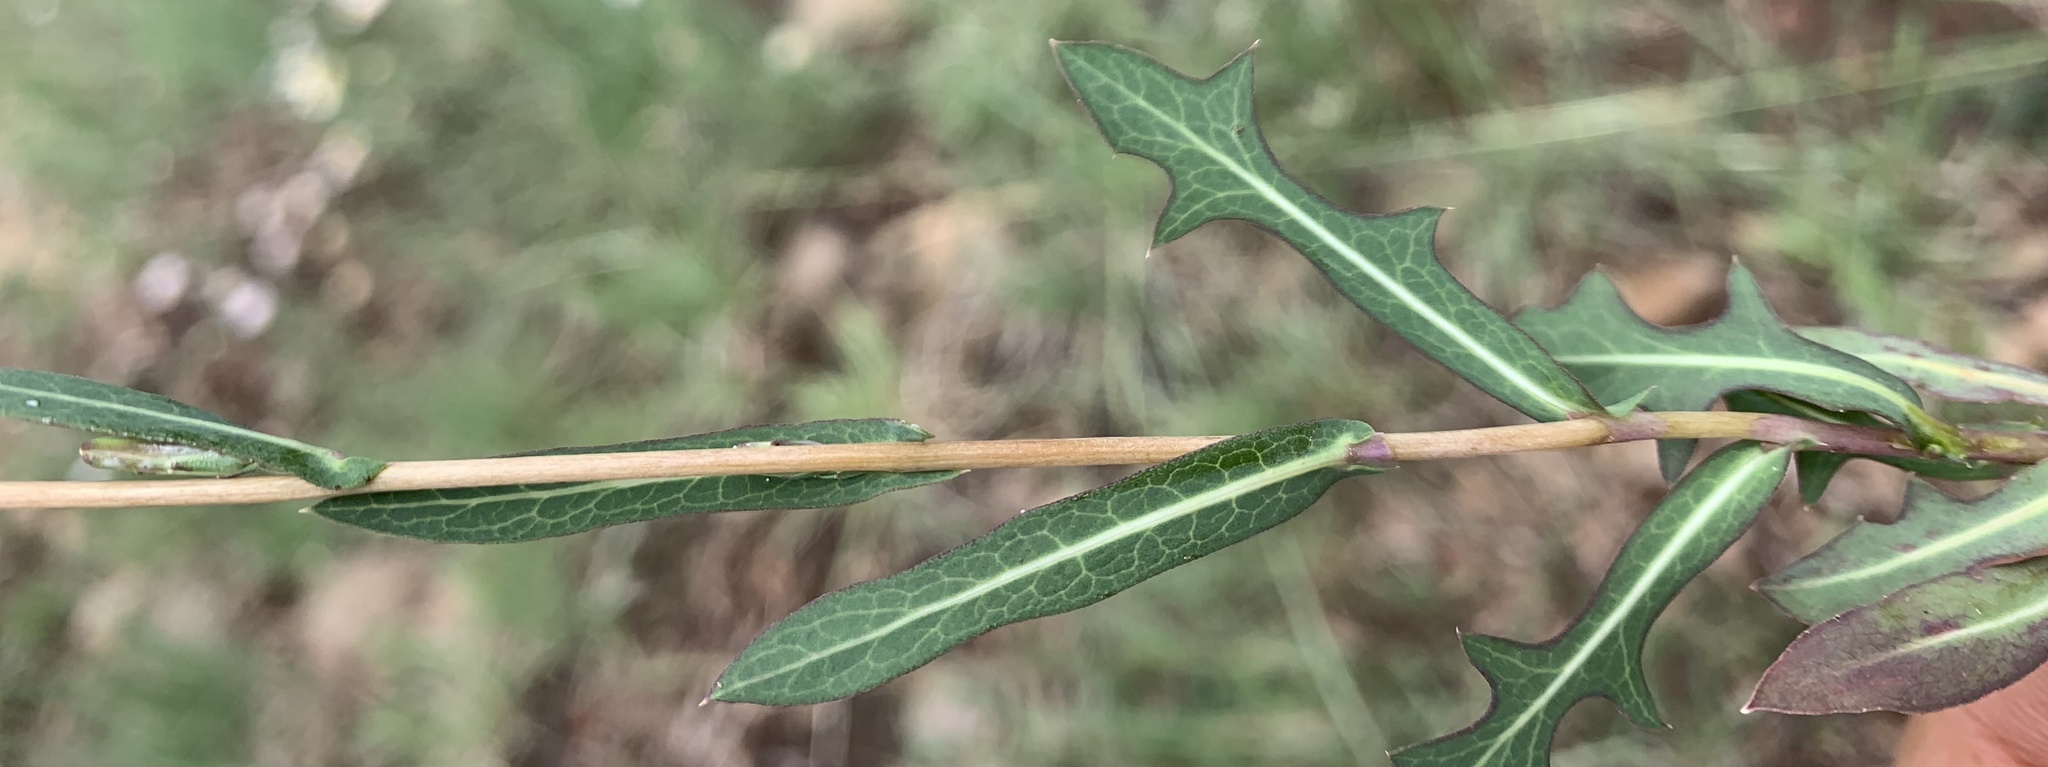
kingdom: Plantae
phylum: Tracheophyta
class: Magnoliopsida
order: Asterales
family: Asteraceae
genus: Lactuca
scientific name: Lactuca saligna
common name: Wild lettuce
